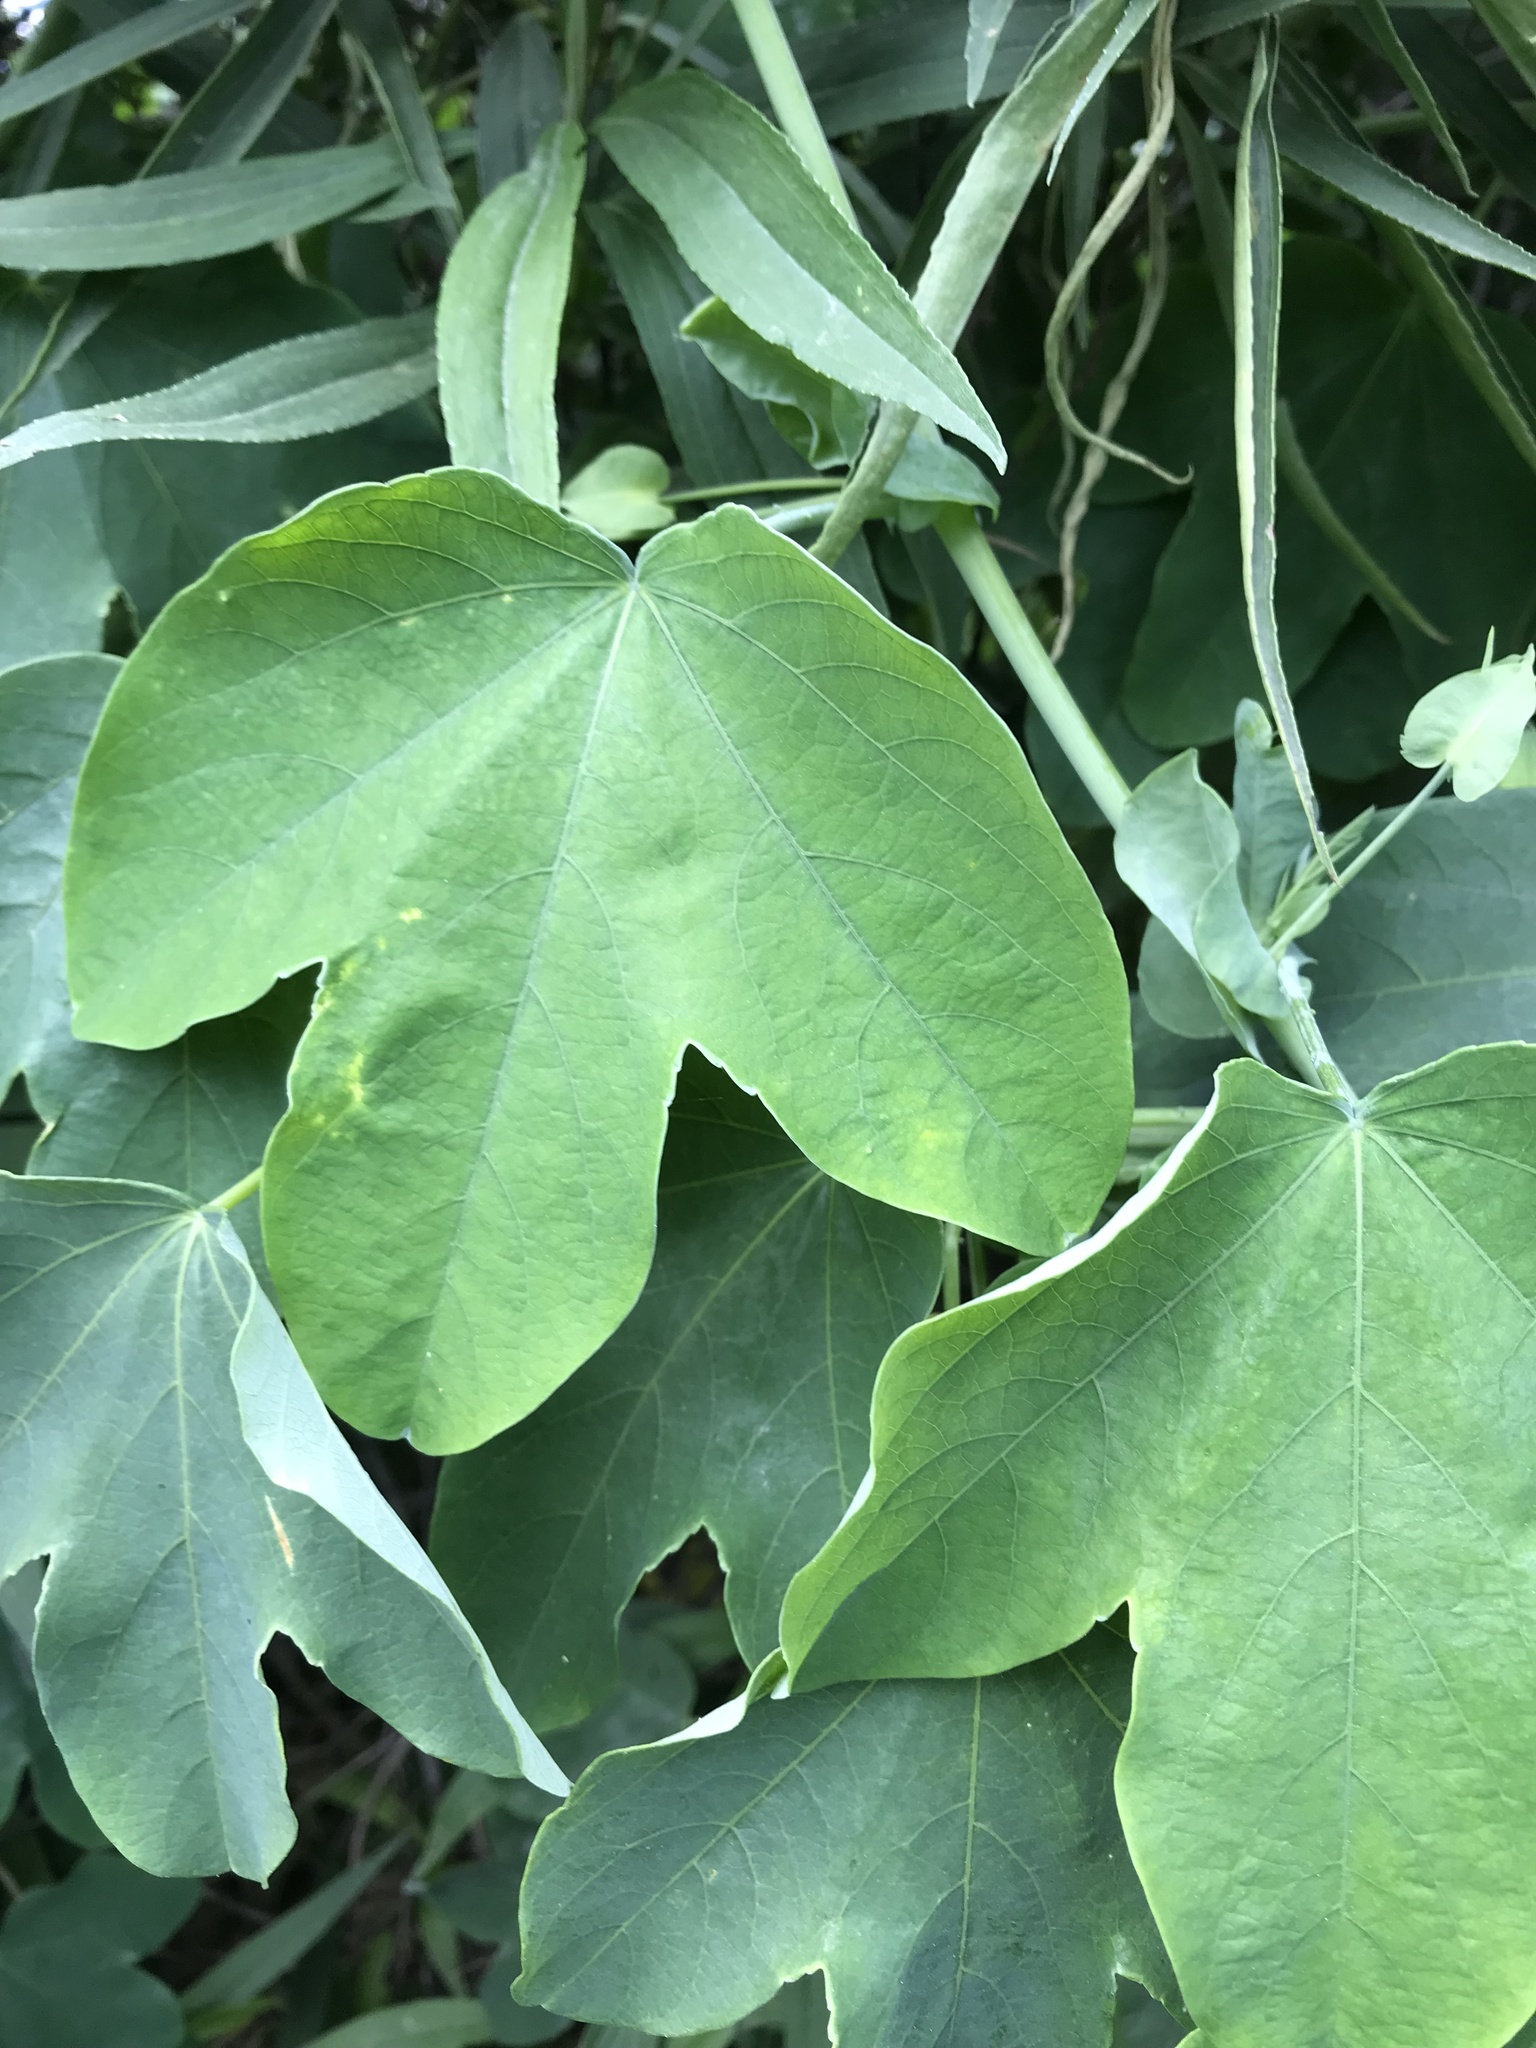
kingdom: Plantae
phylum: Tracheophyta
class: Magnoliopsida
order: Malpighiales
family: Passifloraceae
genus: Passiflora
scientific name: Passiflora subpeltata
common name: White passionflower
